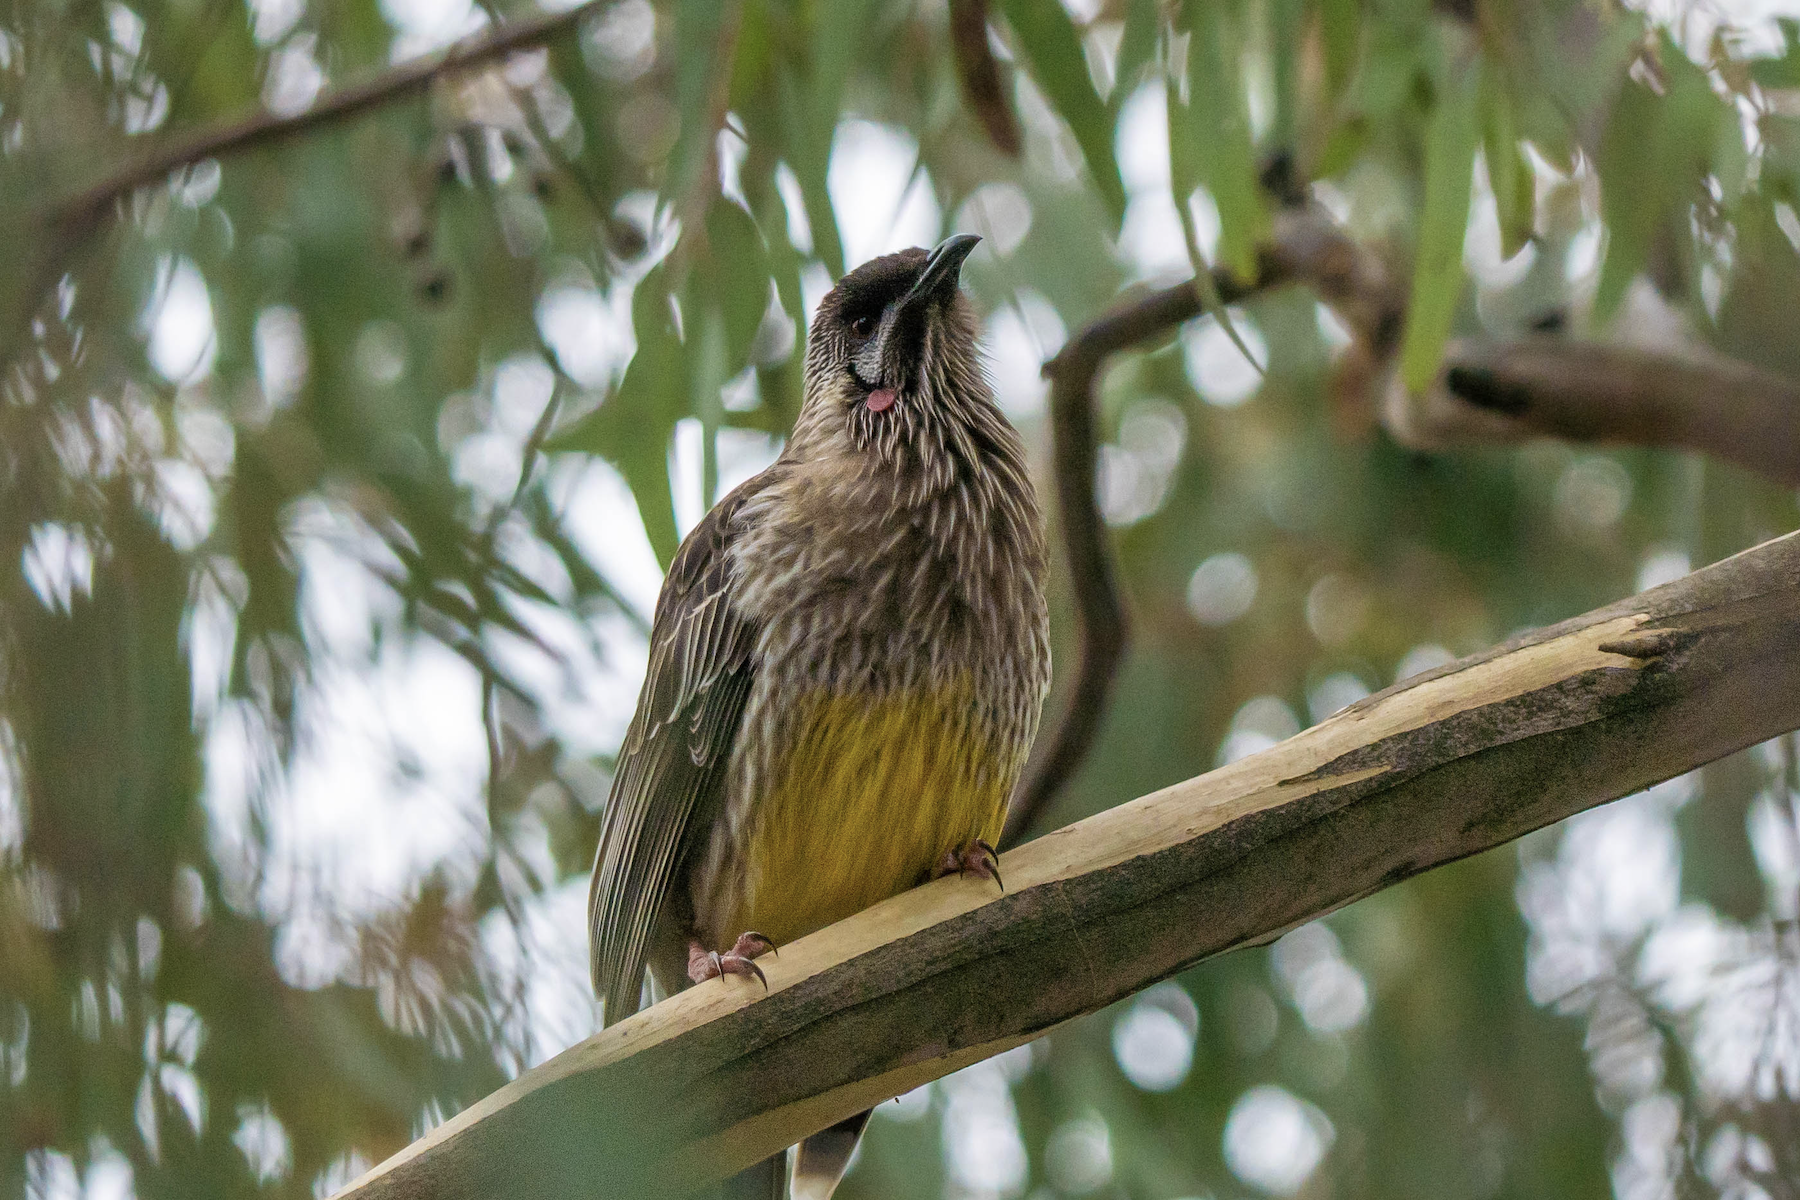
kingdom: Animalia
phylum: Chordata
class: Aves
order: Passeriformes
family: Meliphagidae
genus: Anthochaera
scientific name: Anthochaera carunculata
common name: Red wattlebird
